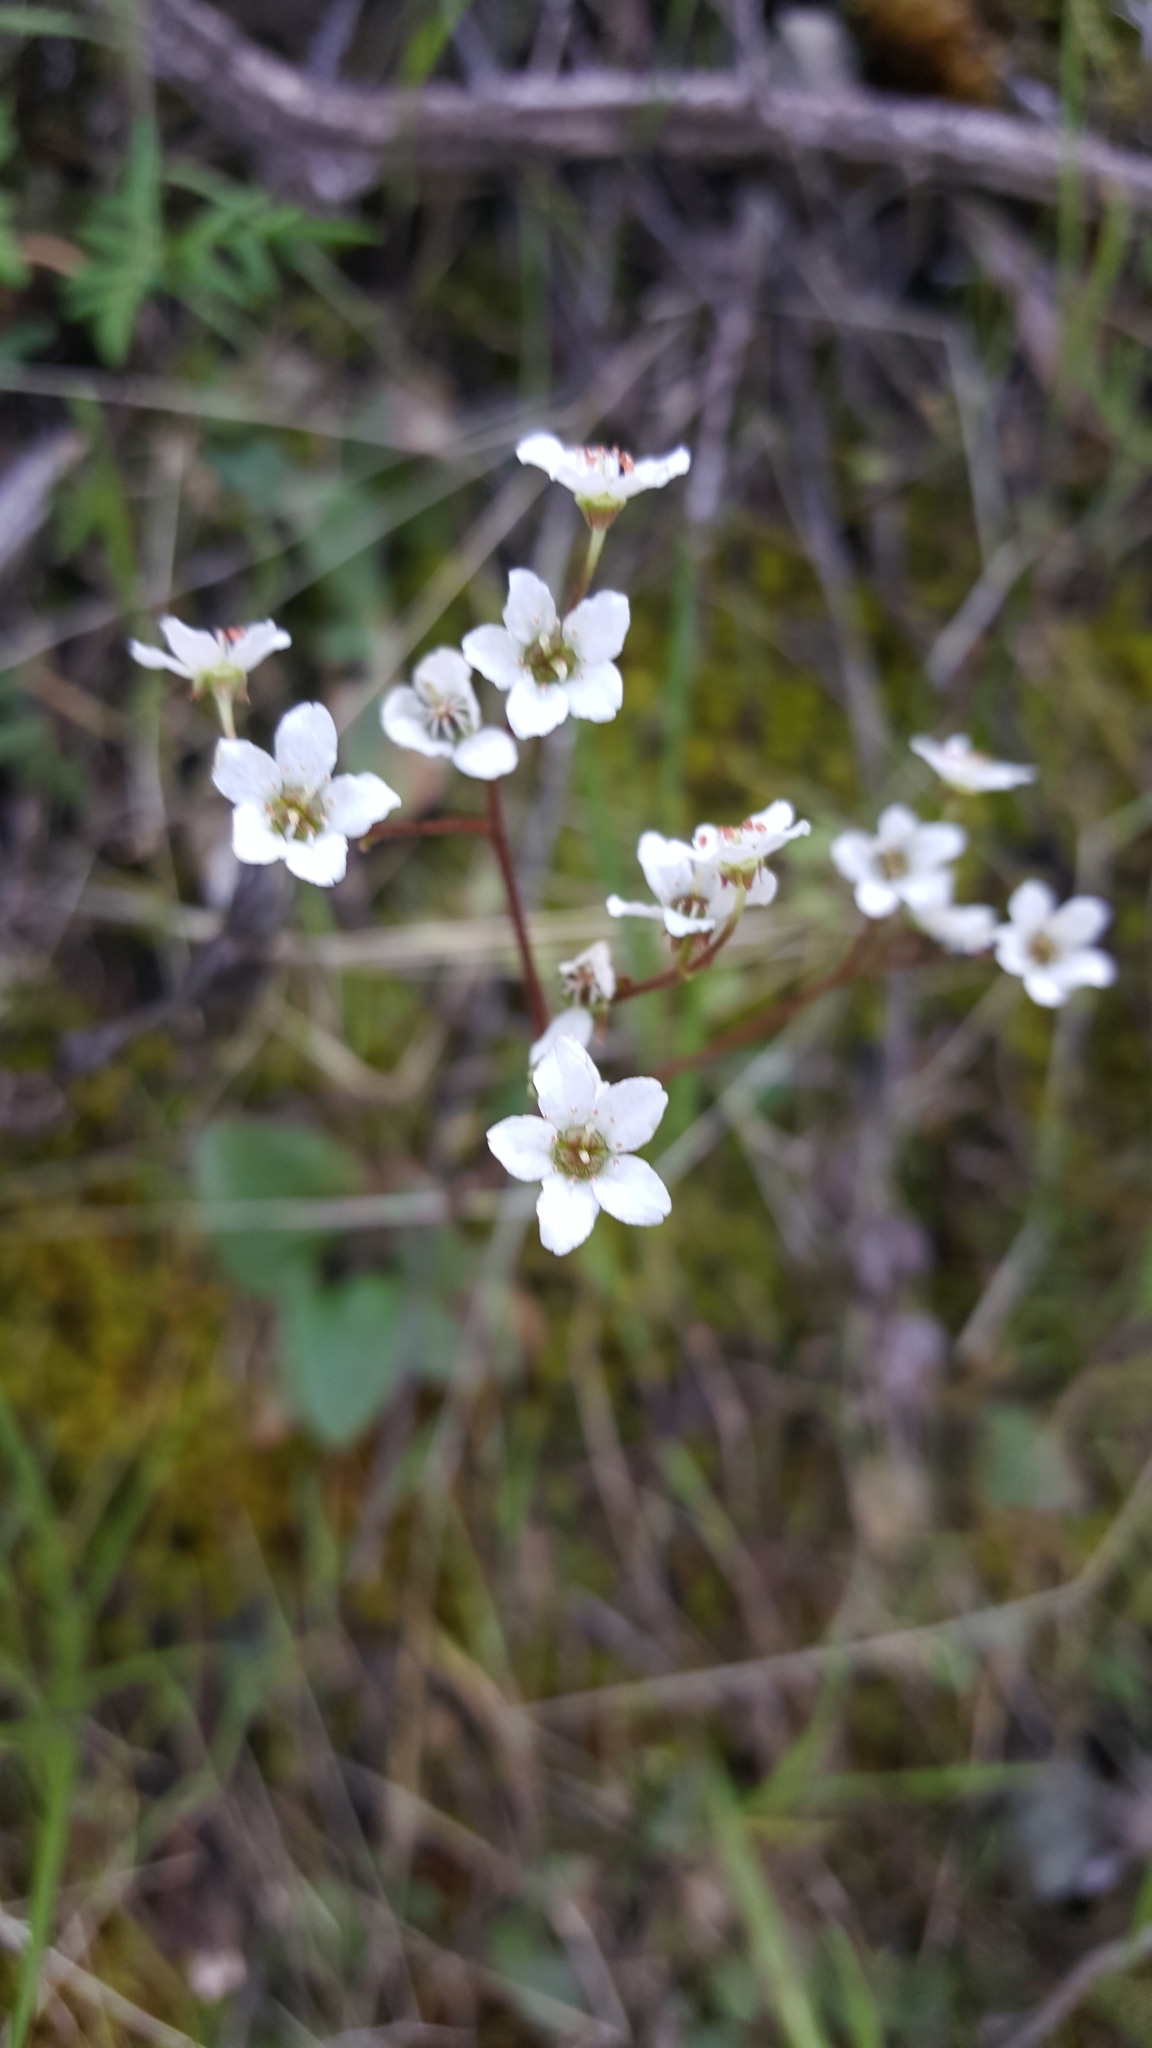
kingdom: Plantae
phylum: Tracheophyta
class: Magnoliopsida
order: Saxifragales
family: Saxifragaceae
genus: Micranthes
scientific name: Micranthes californica
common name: California saxifrage
